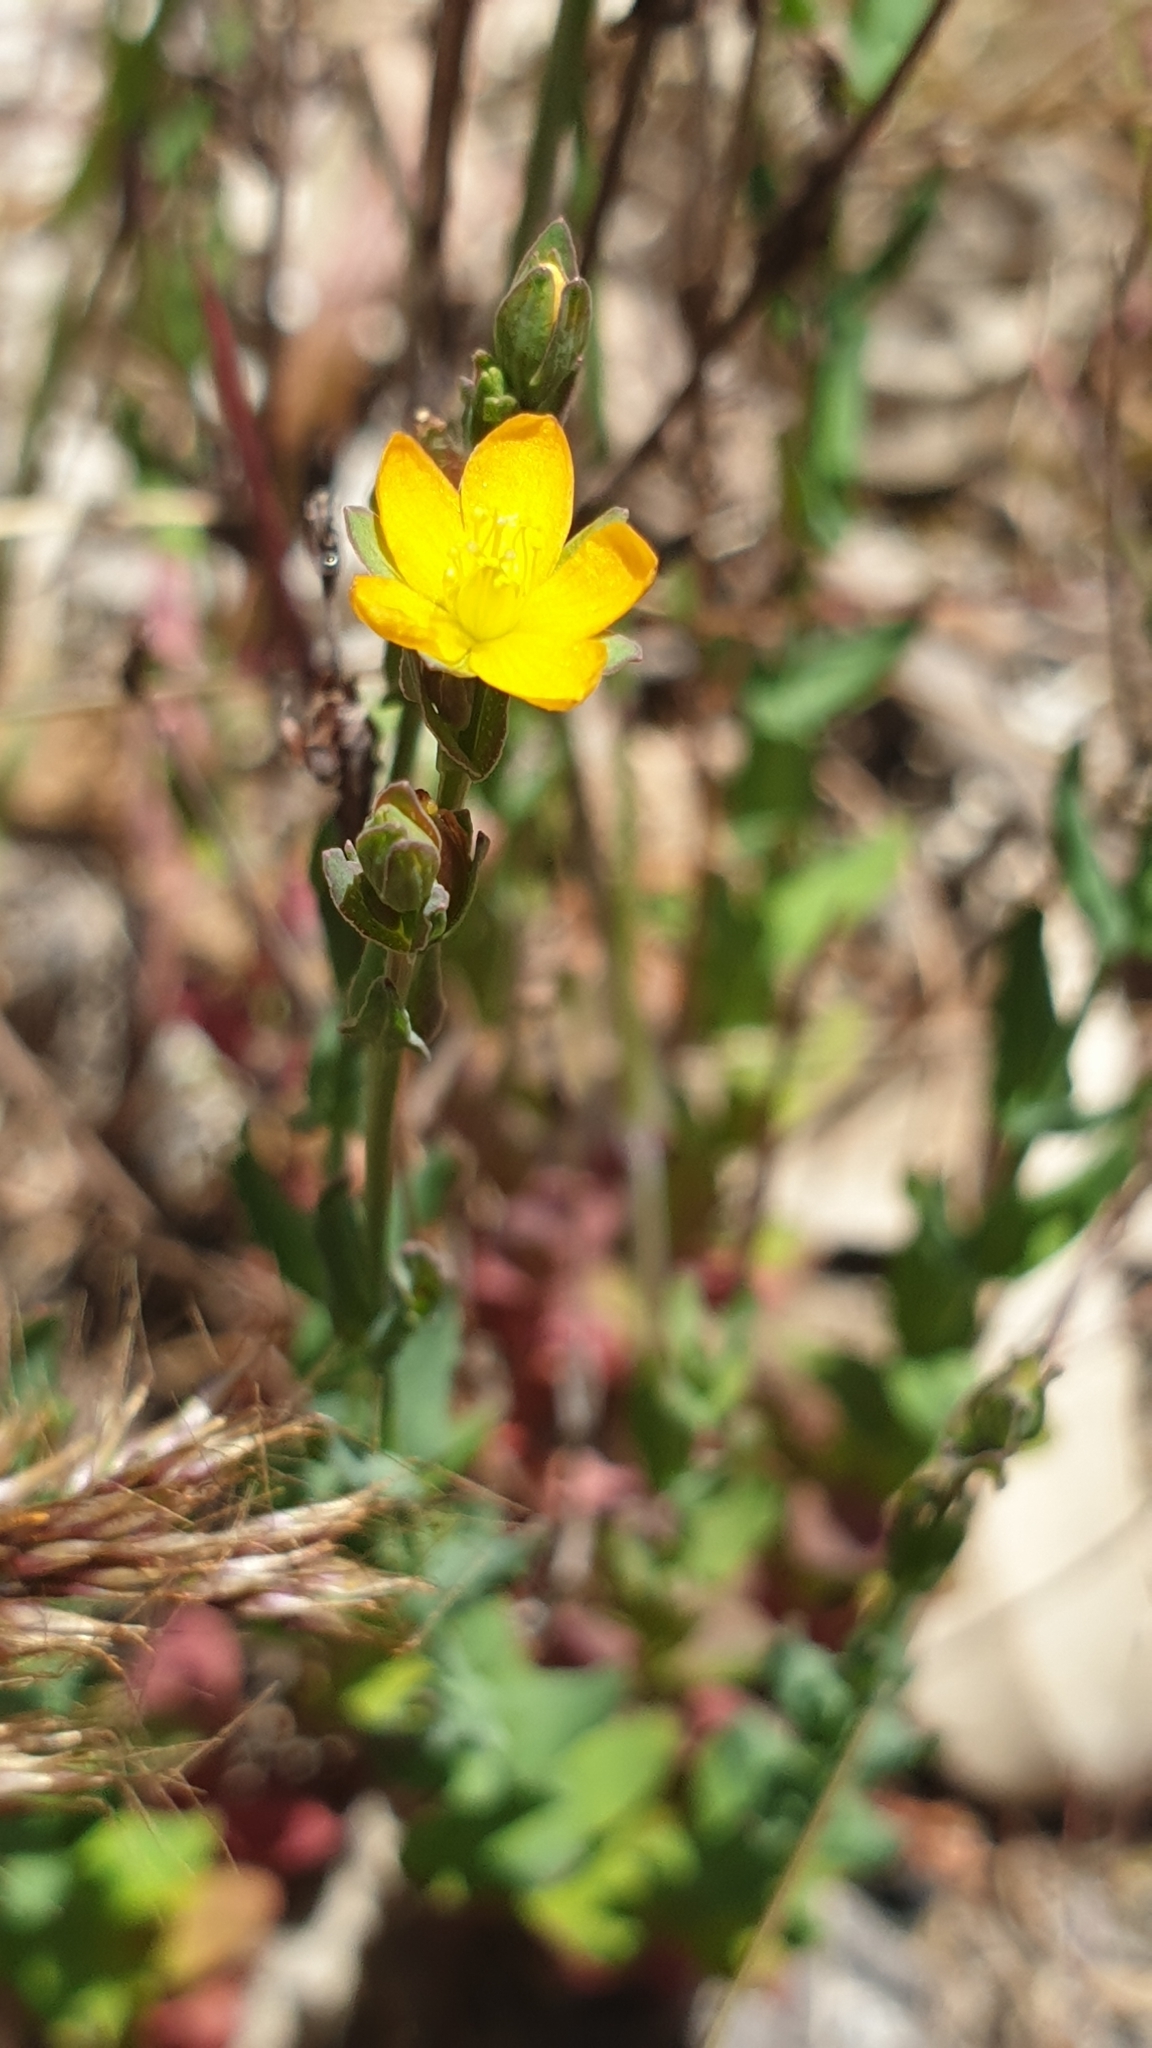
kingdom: Plantae
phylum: Tracheophyta
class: Magnoliopsida
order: Malpighiales
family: Hypericaceae
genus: Hypericum
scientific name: Hypericum gramineum
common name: Grassy st. johnswort
